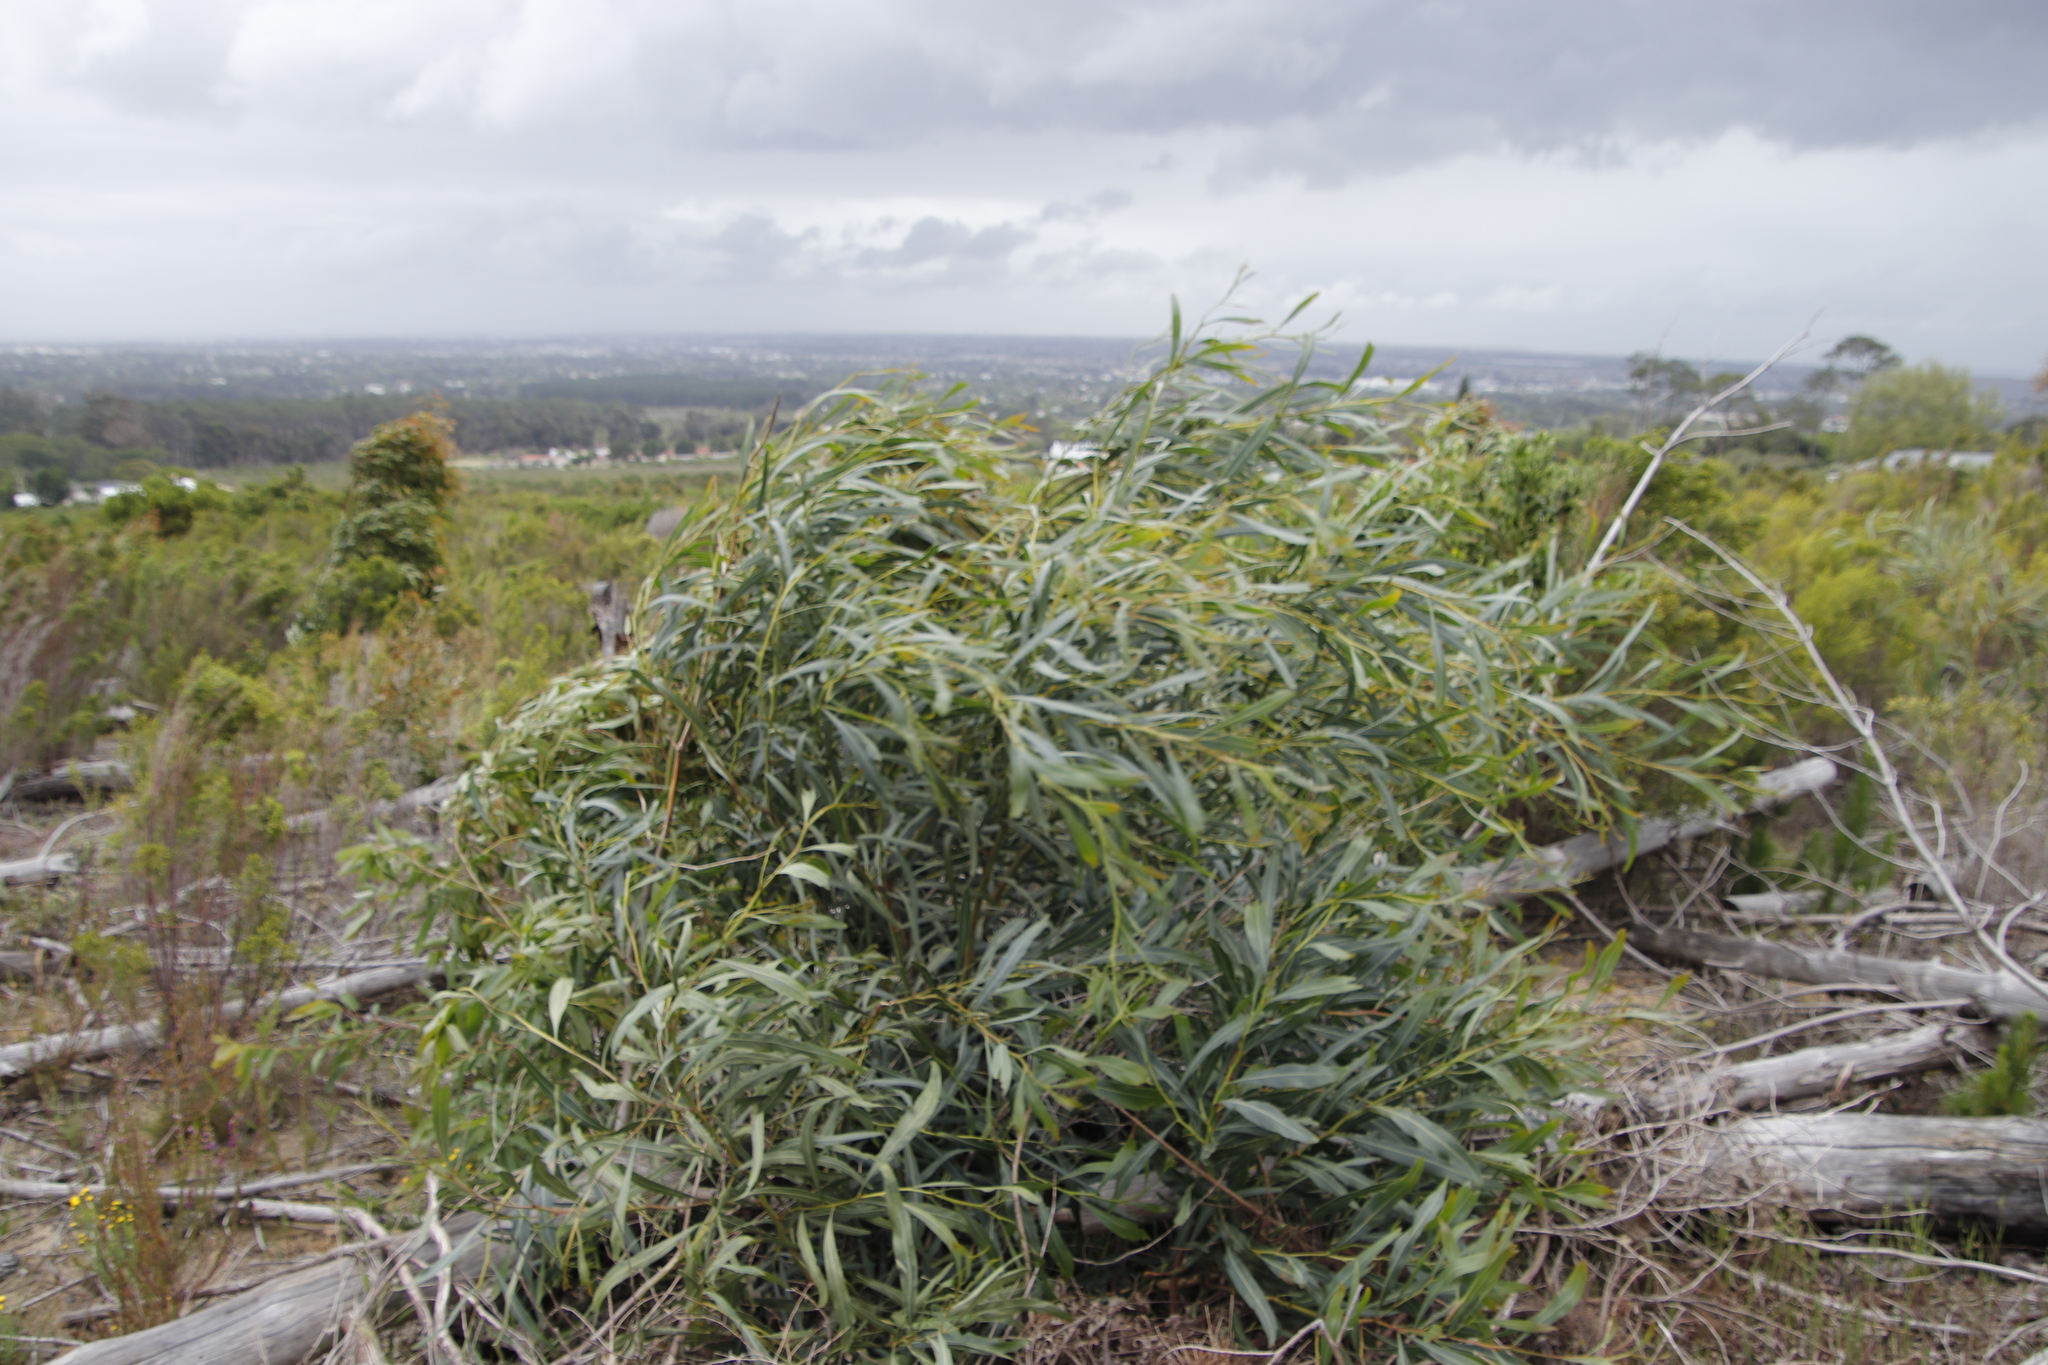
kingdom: Plantae
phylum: Tracheophyta
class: Magnoliopsida
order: Fabales
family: Fabaceae
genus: Acacia
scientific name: Acacia saligna
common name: Orange wattle
